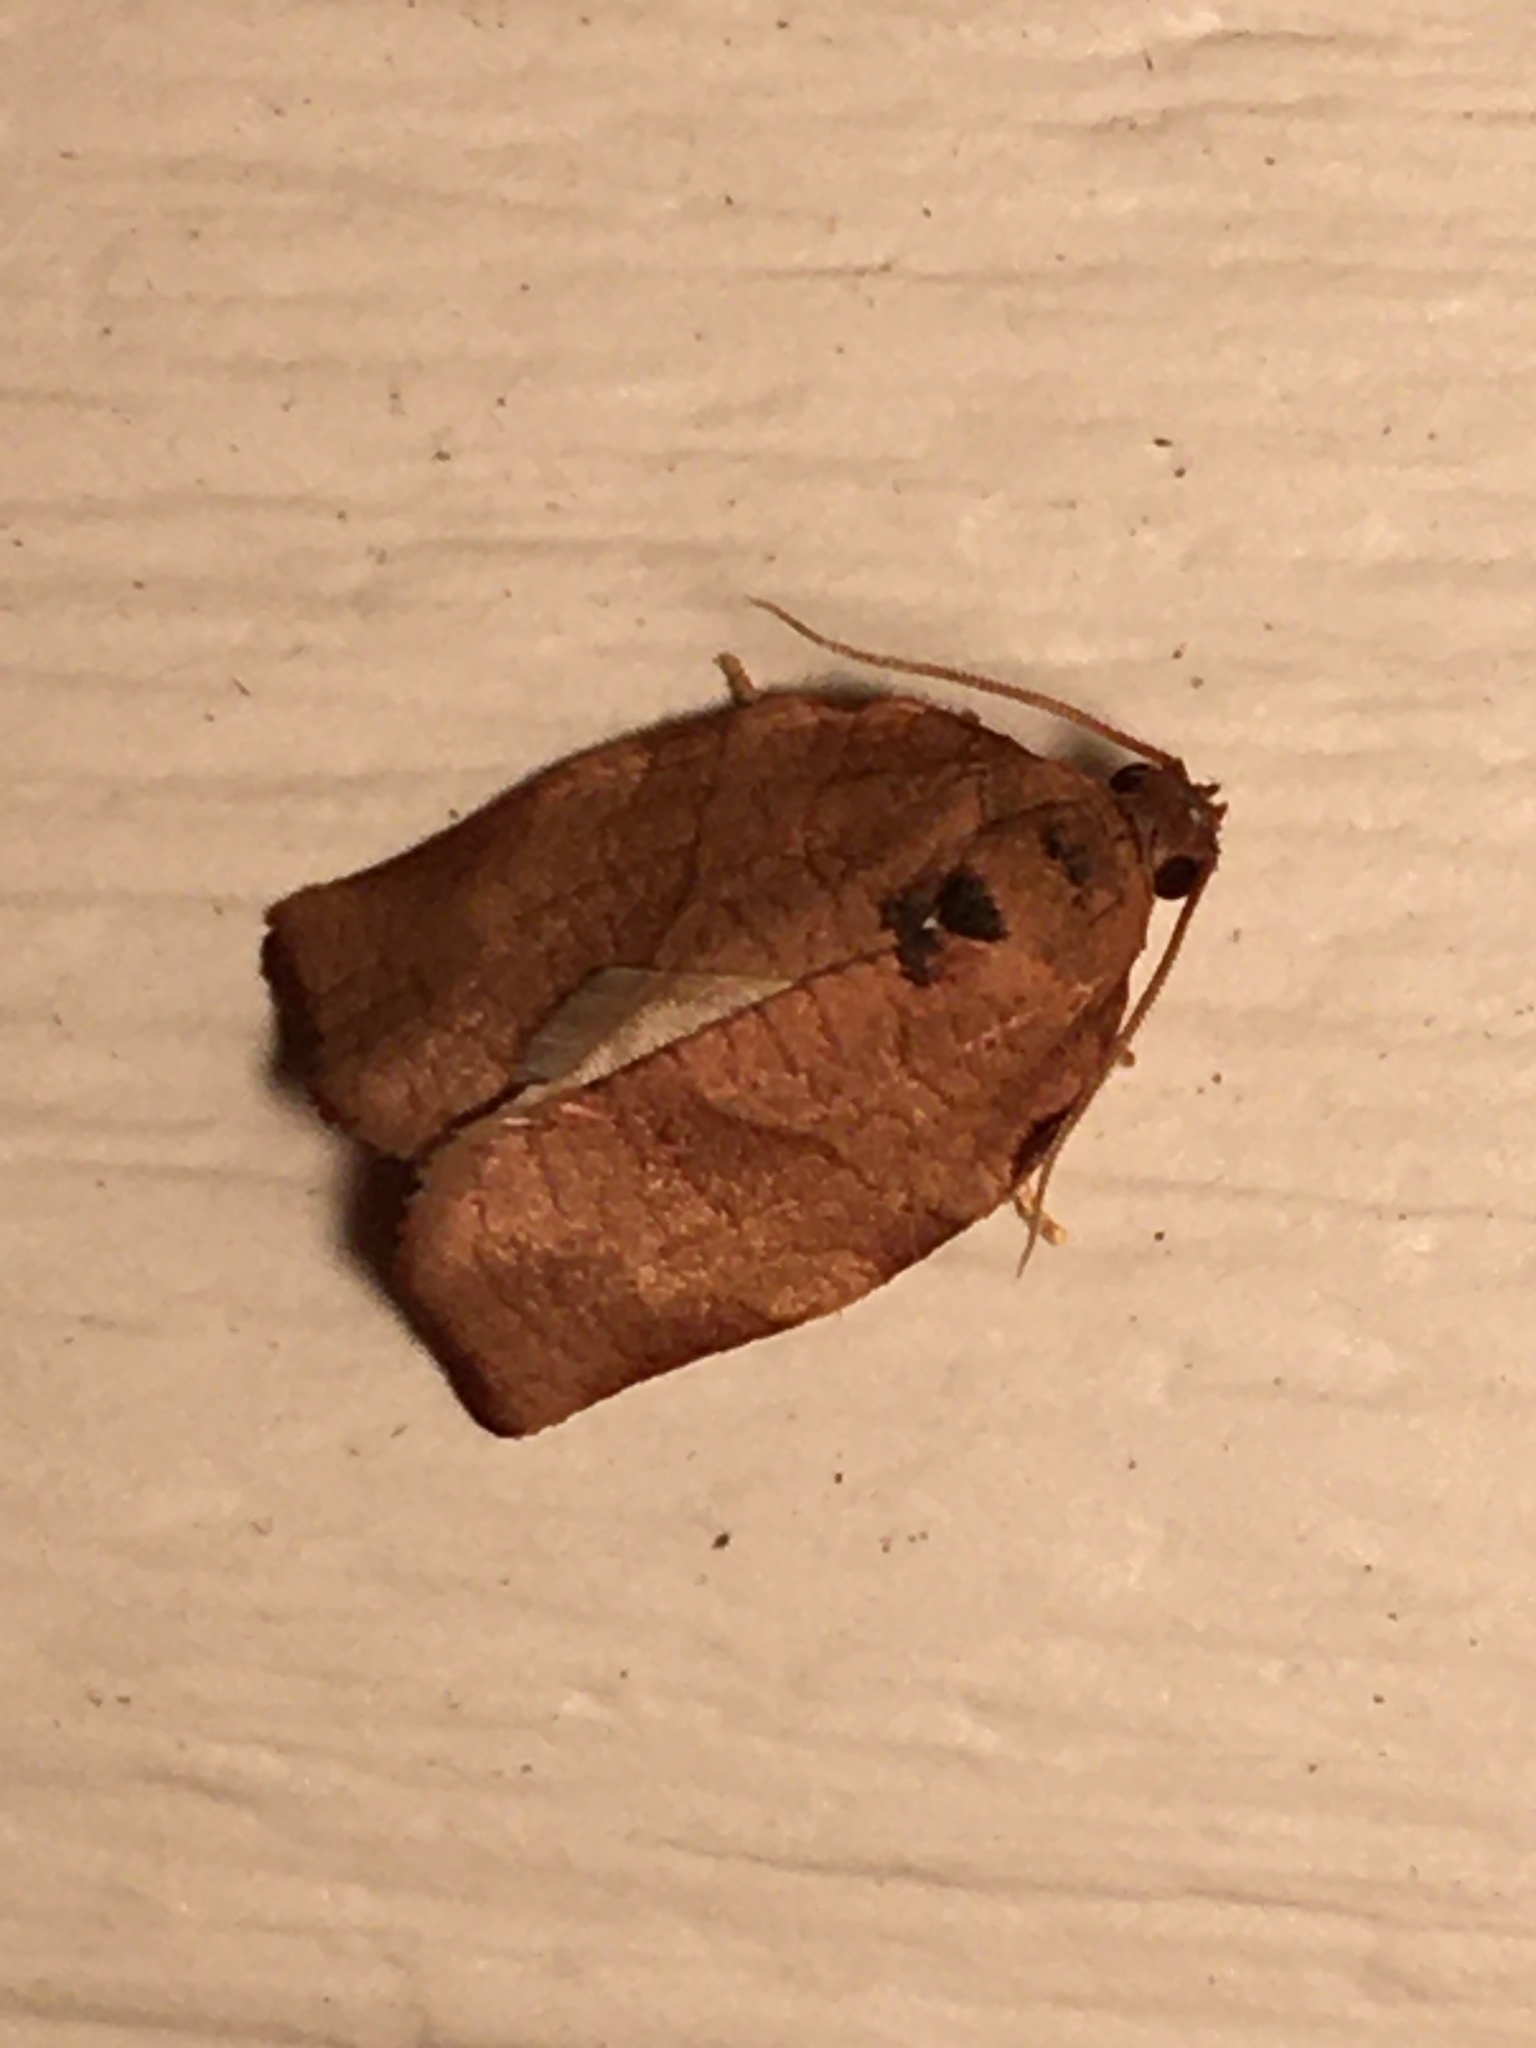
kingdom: Animalia
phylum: Arthropoda
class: Insecta
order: Lepidoptera
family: Tortricidae
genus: Choristoneura
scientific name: Choristoneura rosaceana
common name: Oblique-banded leafroller moth
